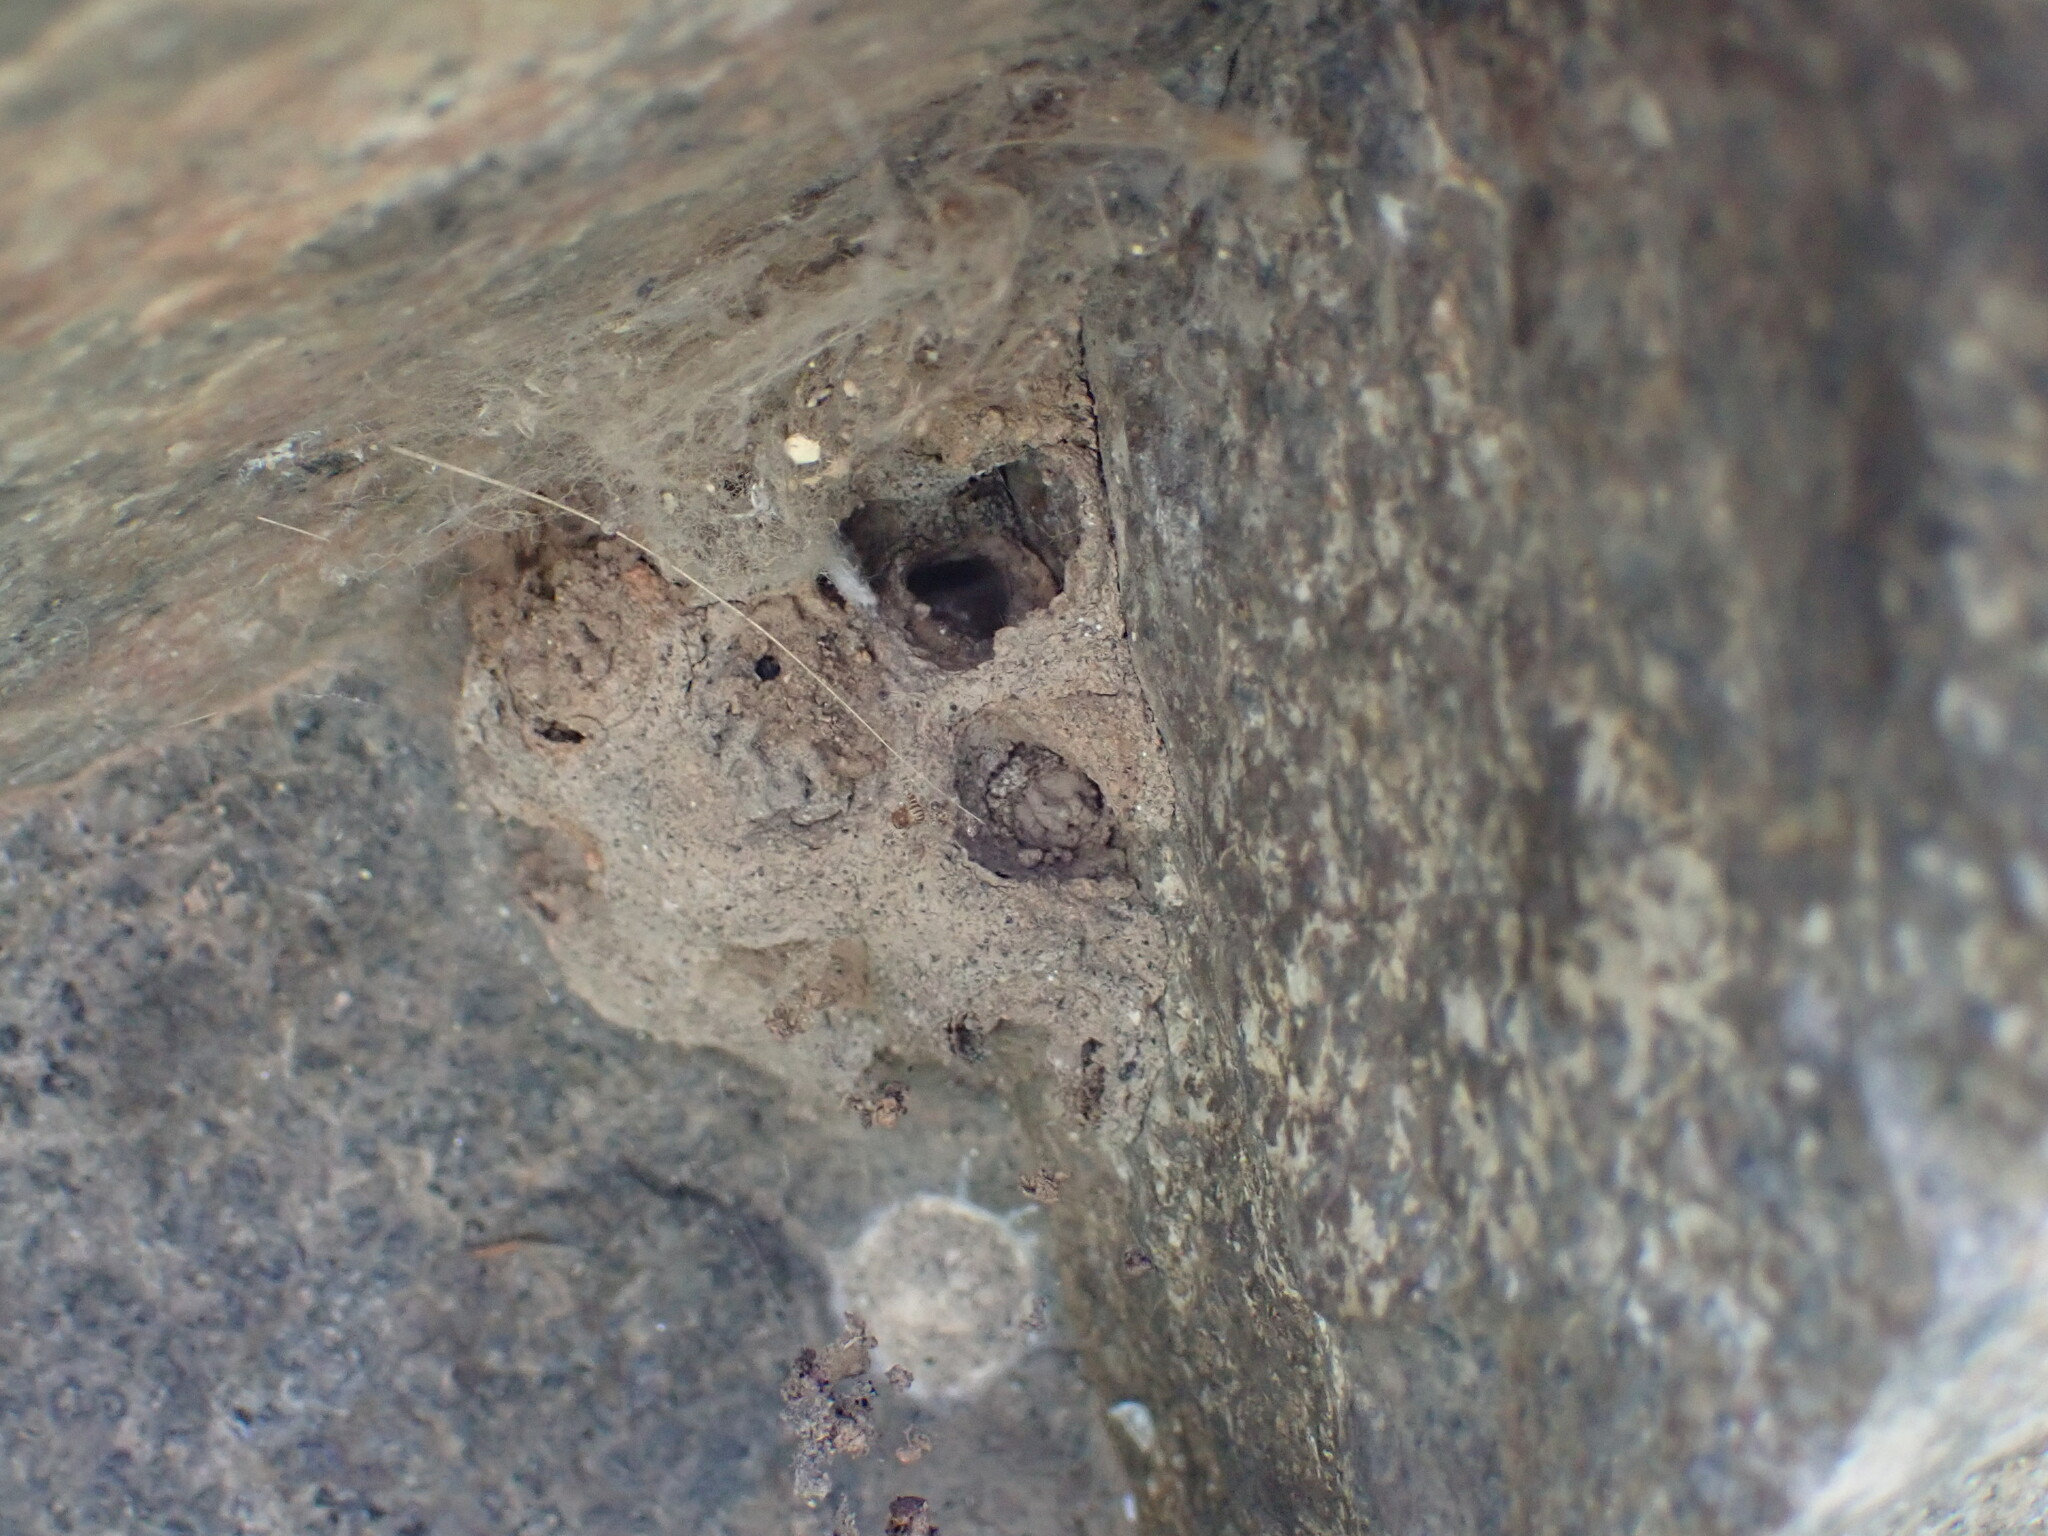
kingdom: Animalia
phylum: Arthropoda
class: Insecta
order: Hymenoptera
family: Vespidae
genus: Ancistrocerus
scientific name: Ancistrocerus
